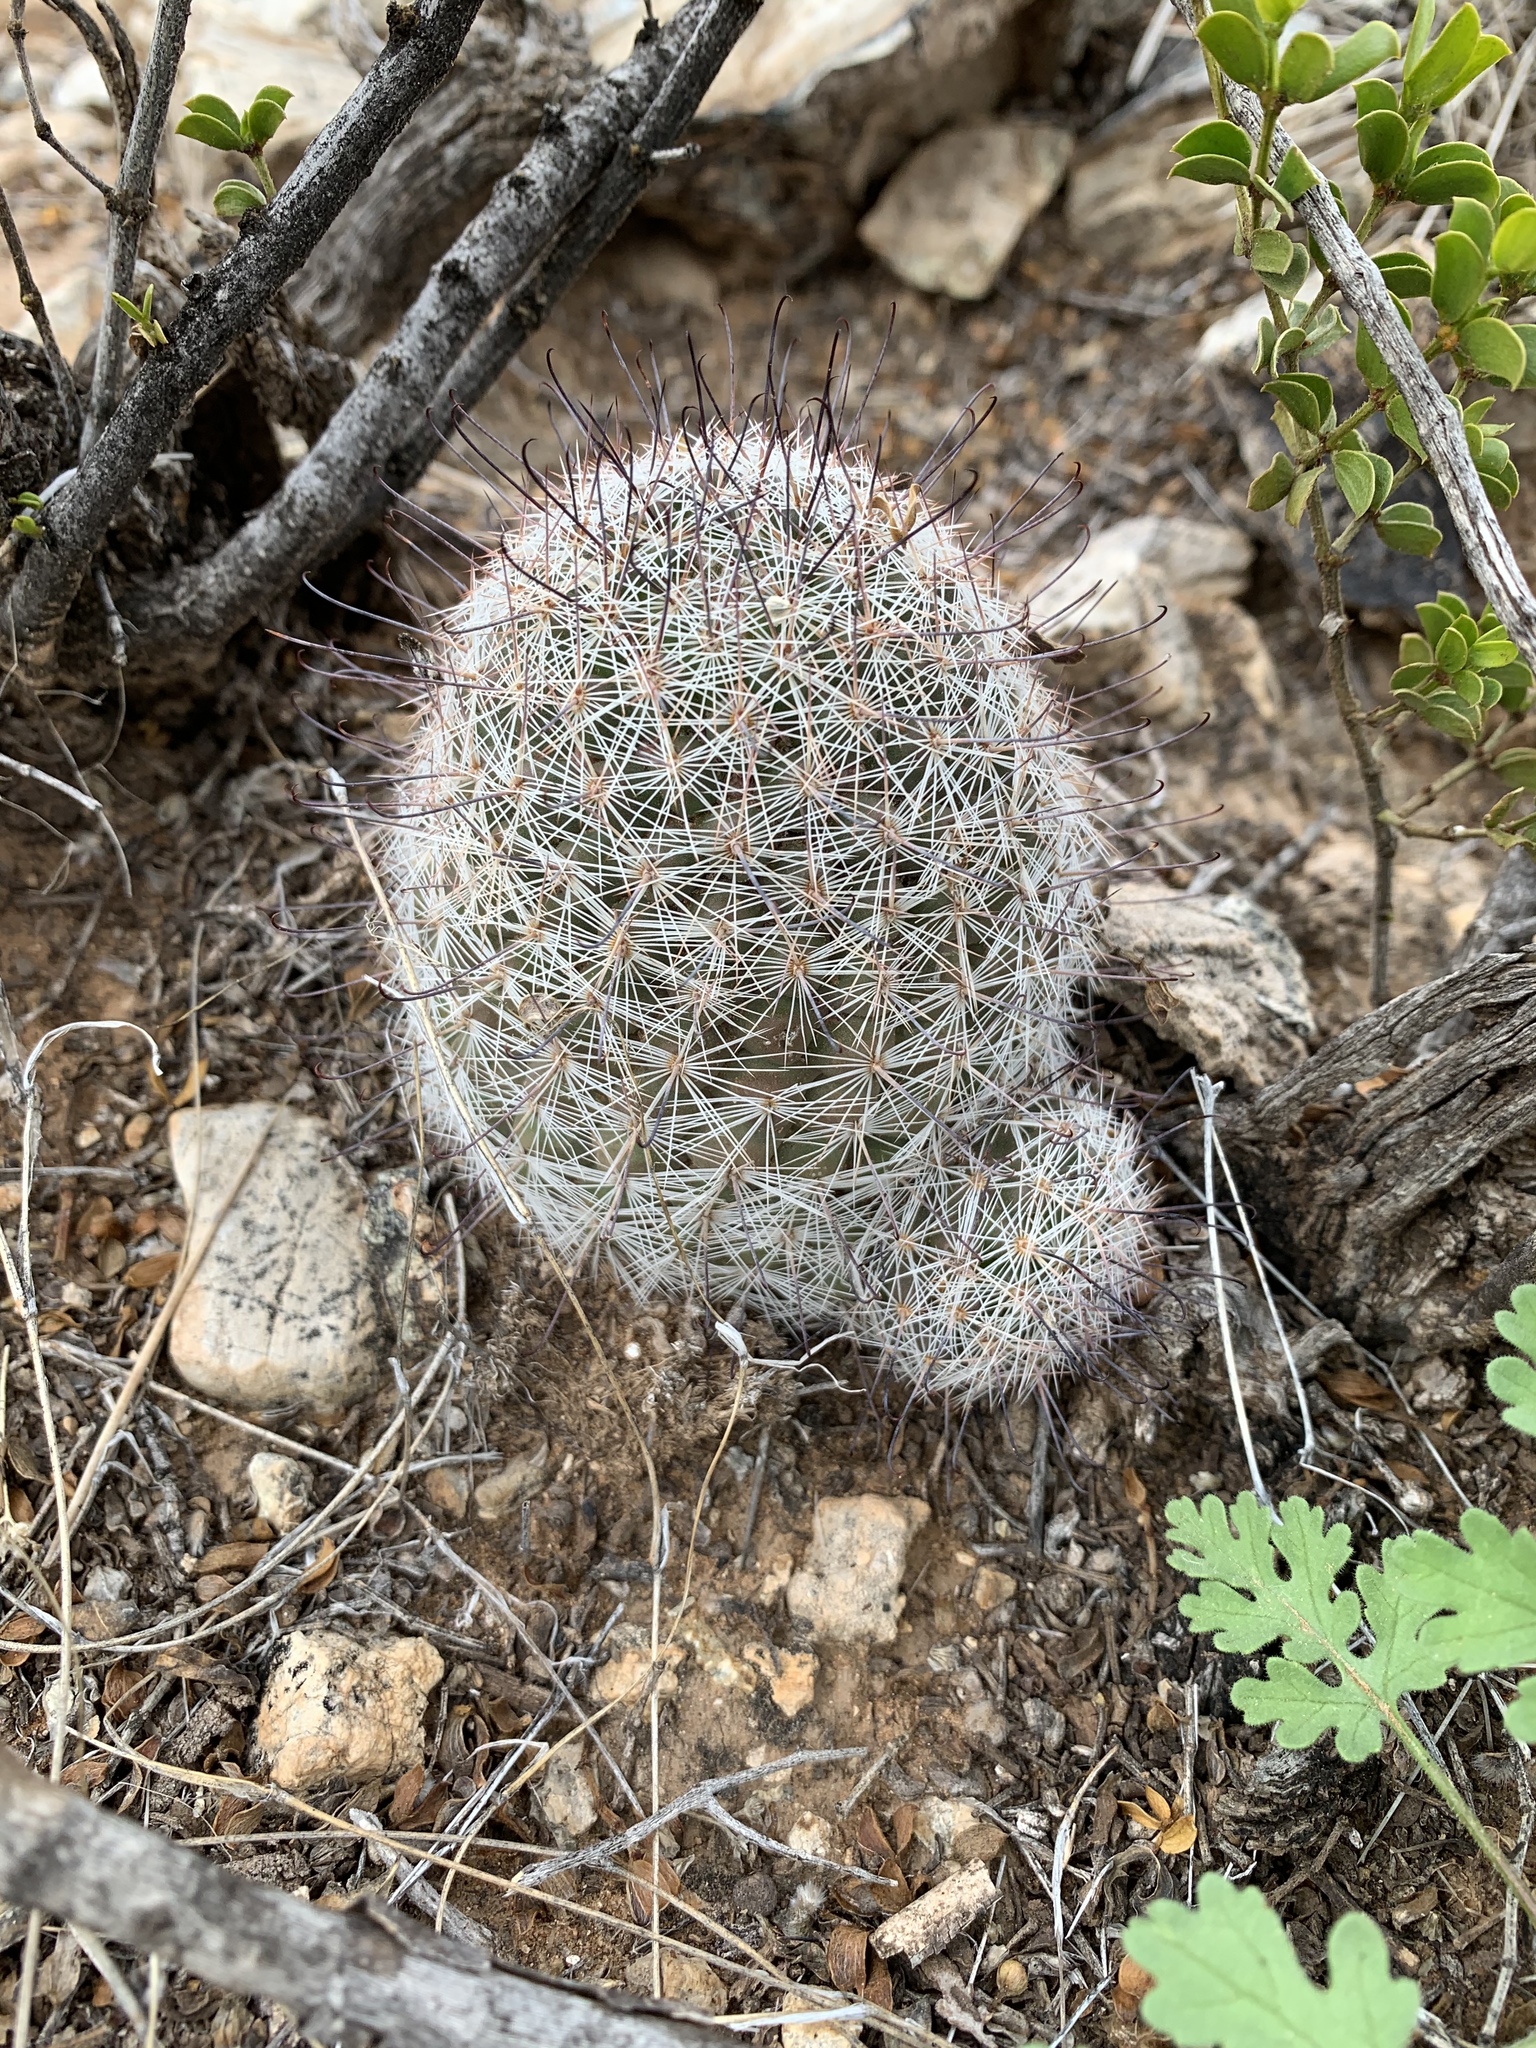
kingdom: Plantae
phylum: Tracheophyta
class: Magnoliopsida
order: Caryophyllales
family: Cactaceae
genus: Cochemiea
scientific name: Cochemiea grahamii
